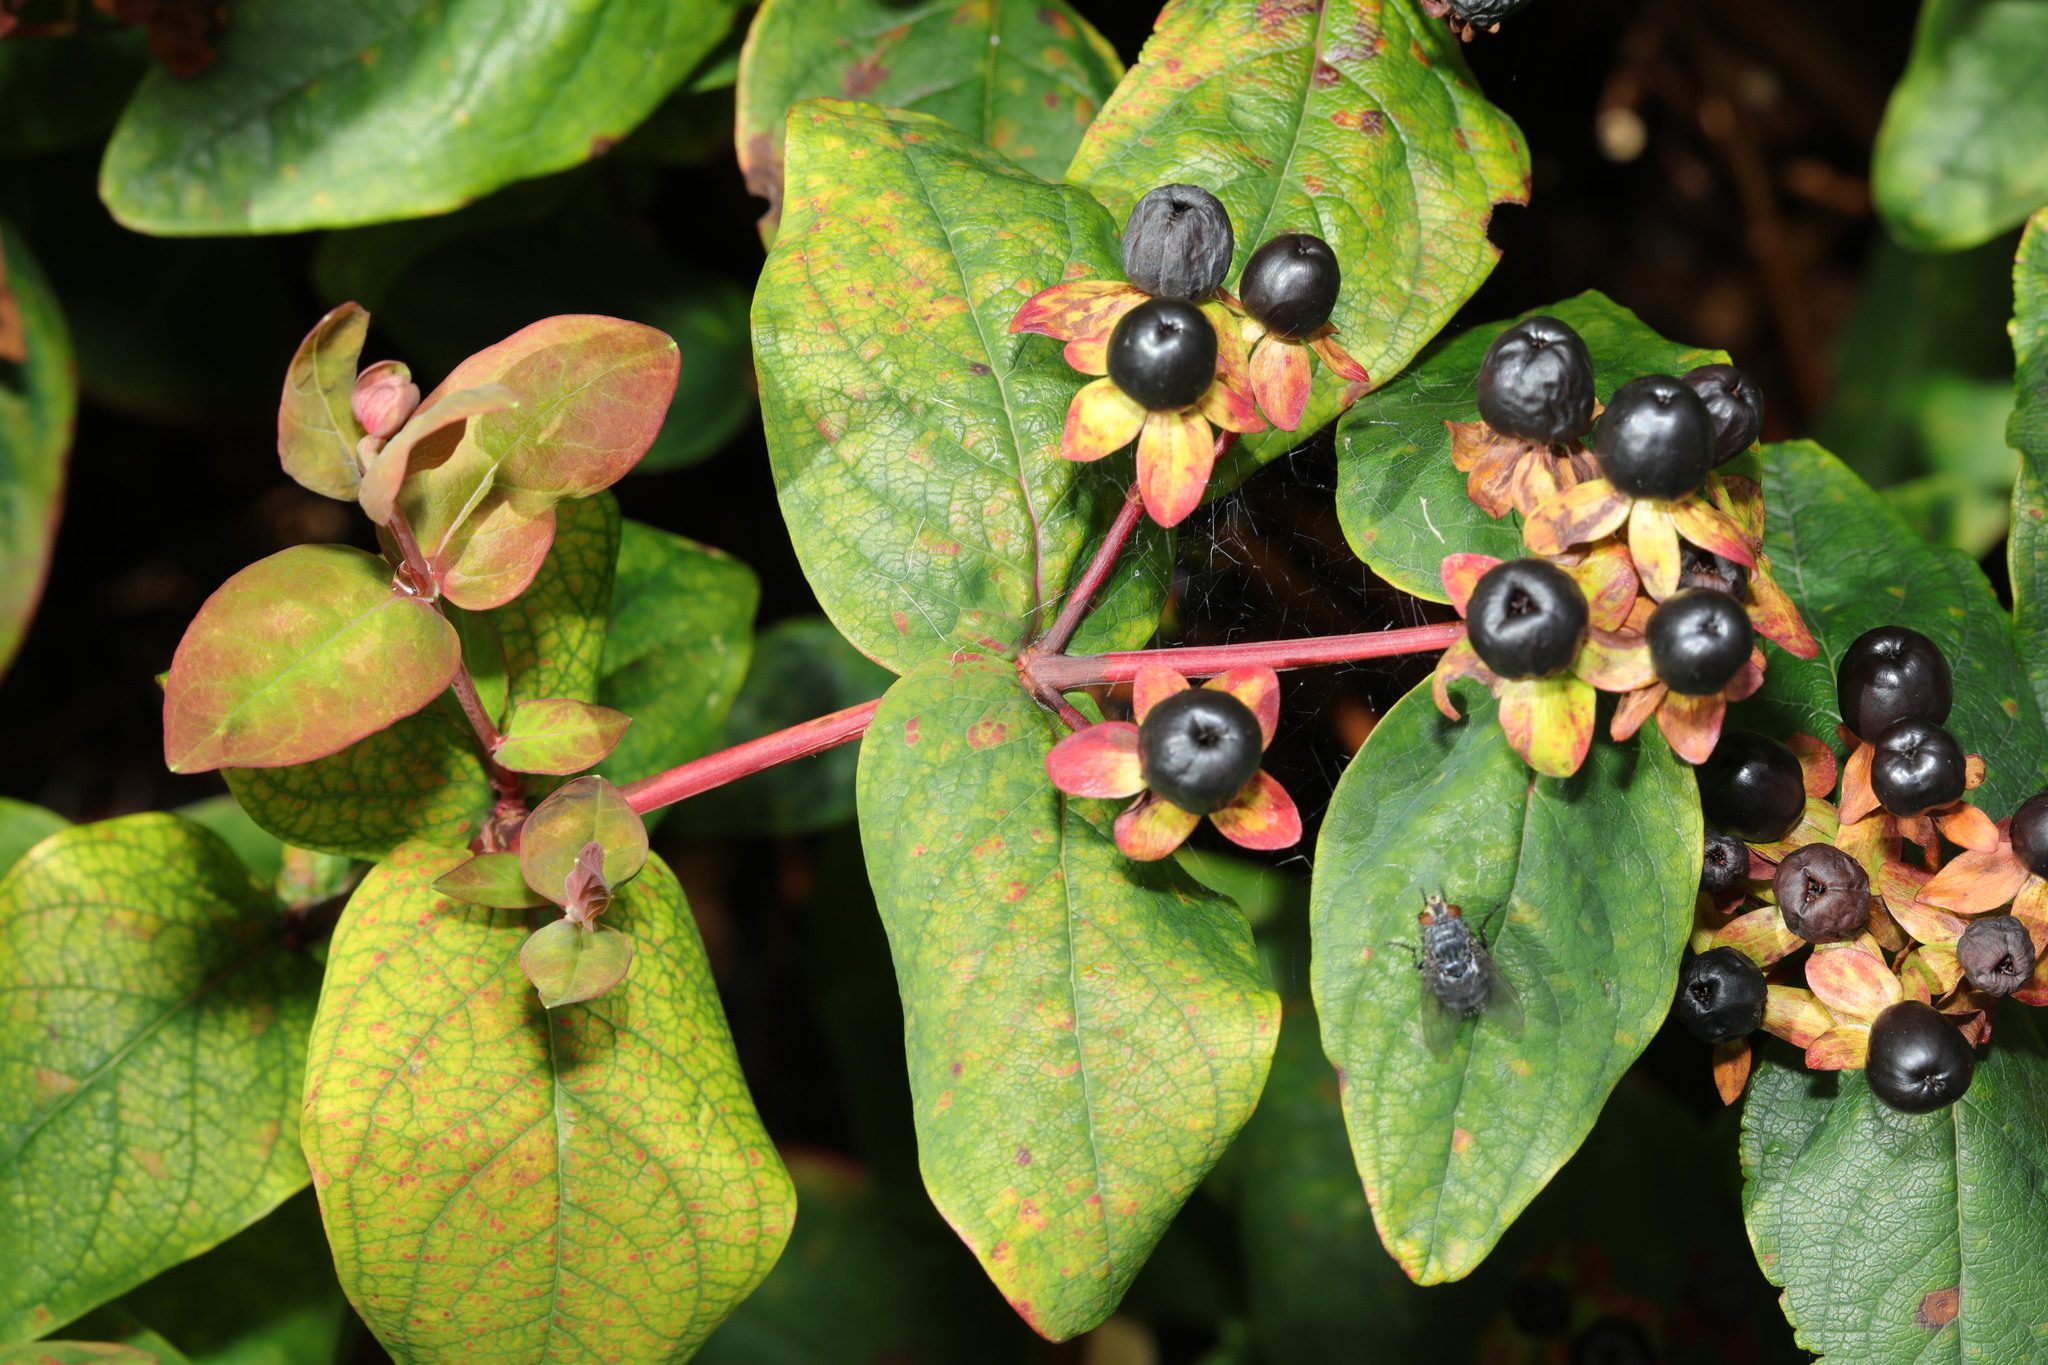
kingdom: Plantae
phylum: Tracheophyta
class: Magnoliopsida
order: Malpighiales
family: Hypericaceae
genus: Hypericum
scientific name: Hypericum androsaemum
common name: Sweet-amber
